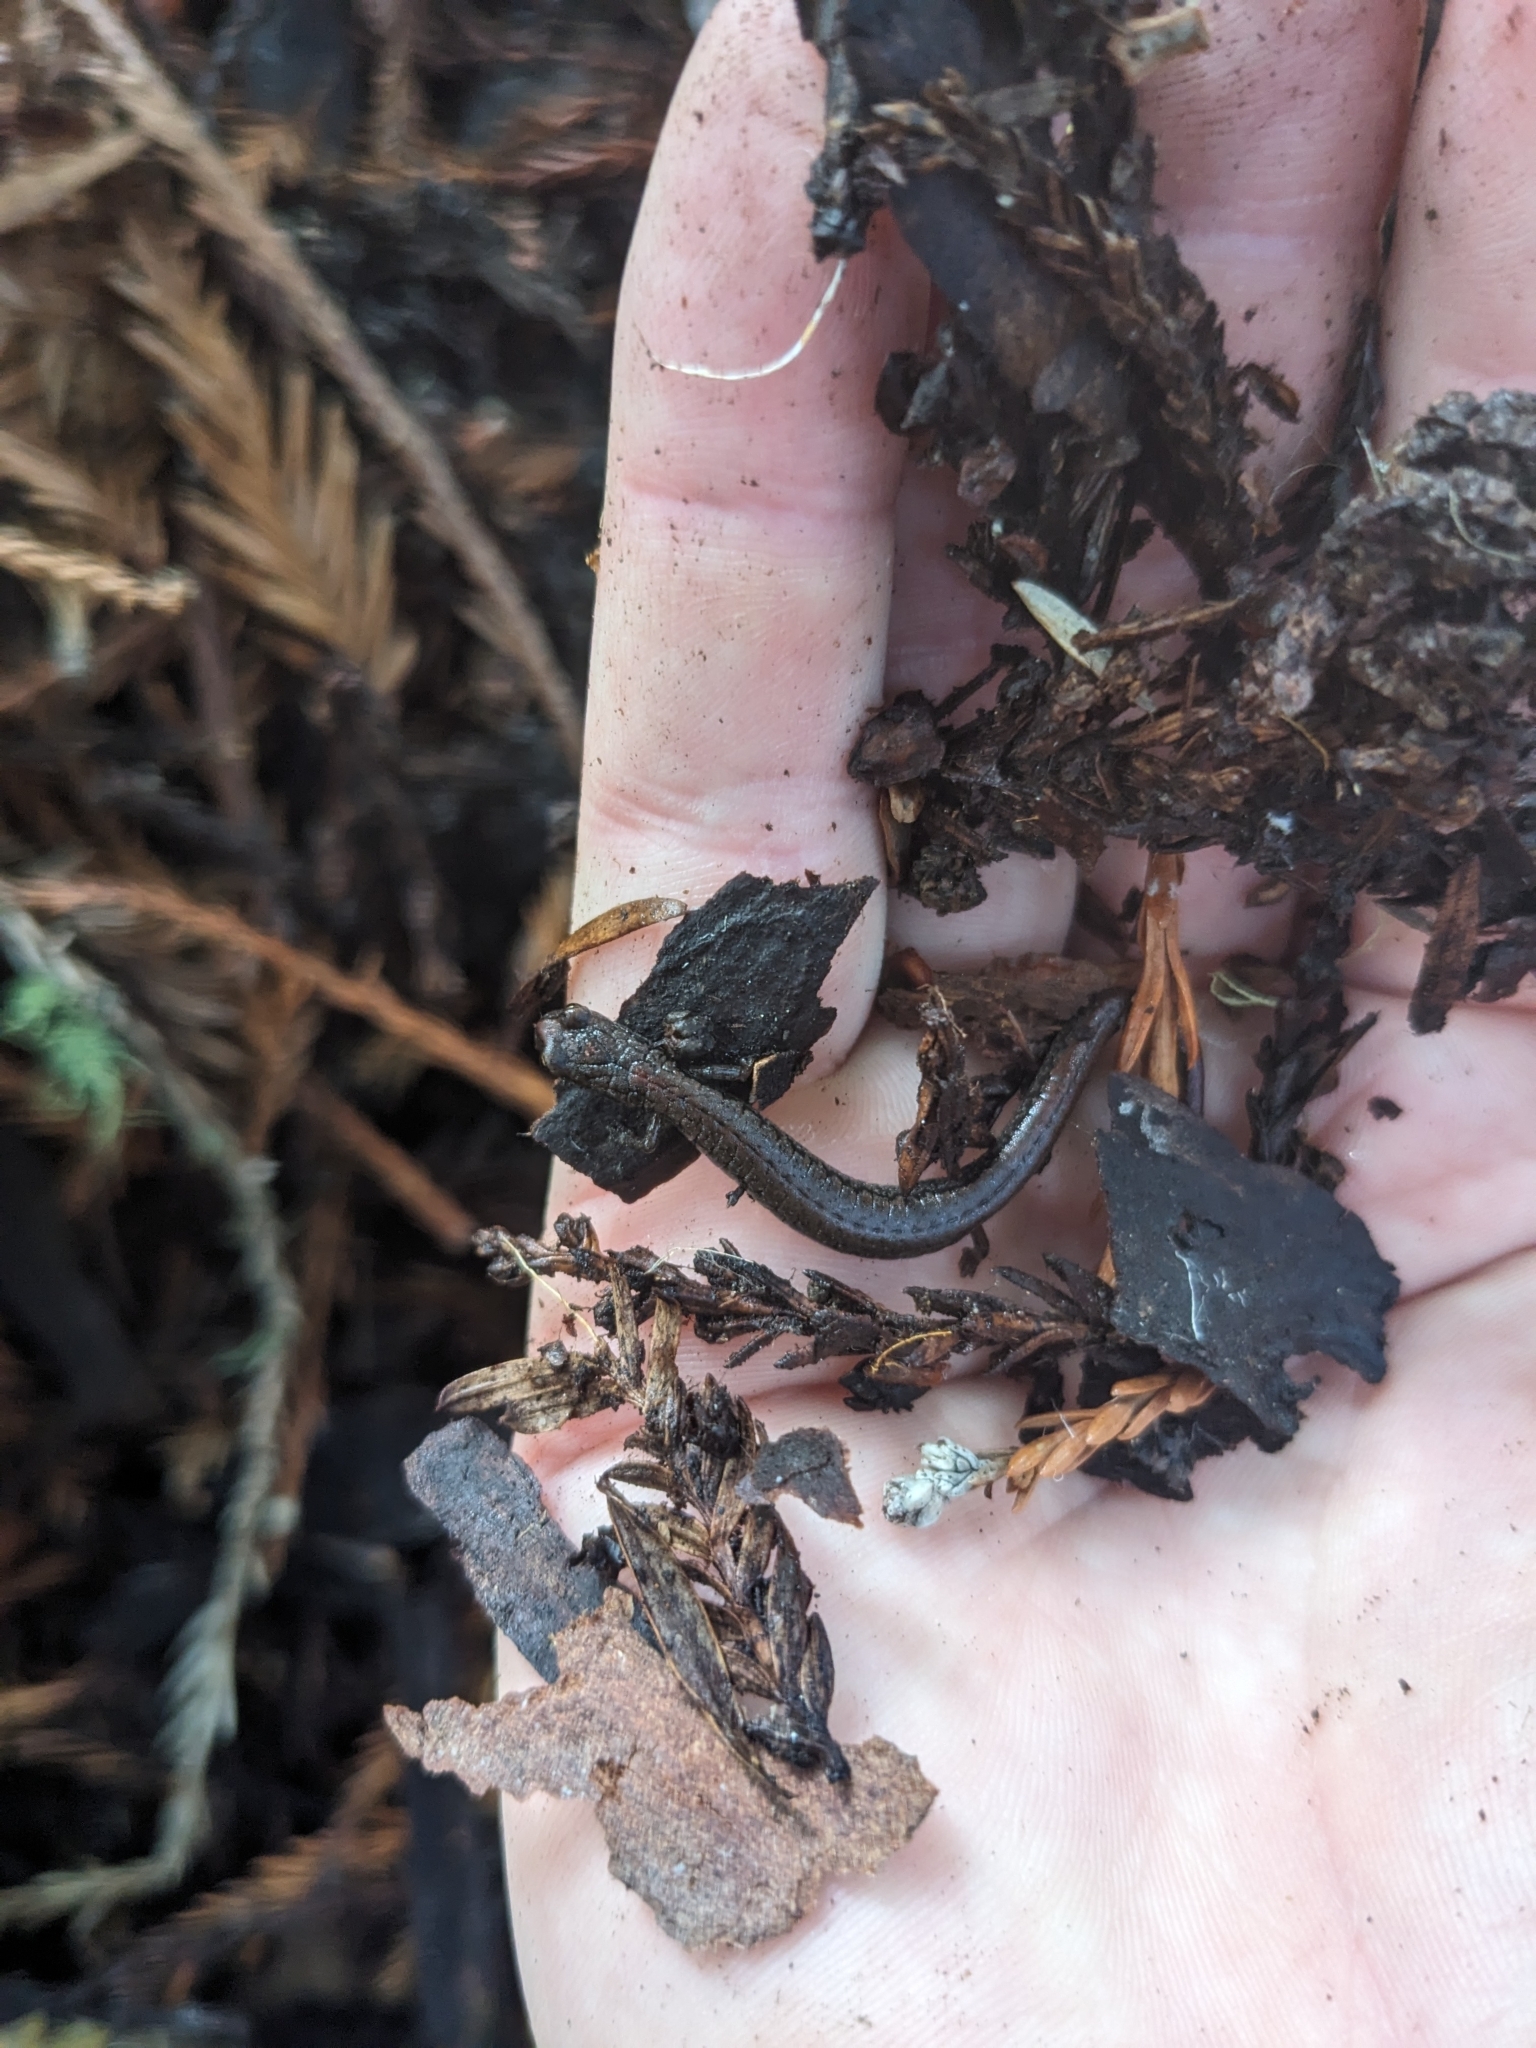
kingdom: Animalia
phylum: Chordata
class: Amphibia
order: Caudata
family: Plethodontidae
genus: Batrachoseps
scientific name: Batrachoseps luciae
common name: Santa lucia mountains slender salamander
